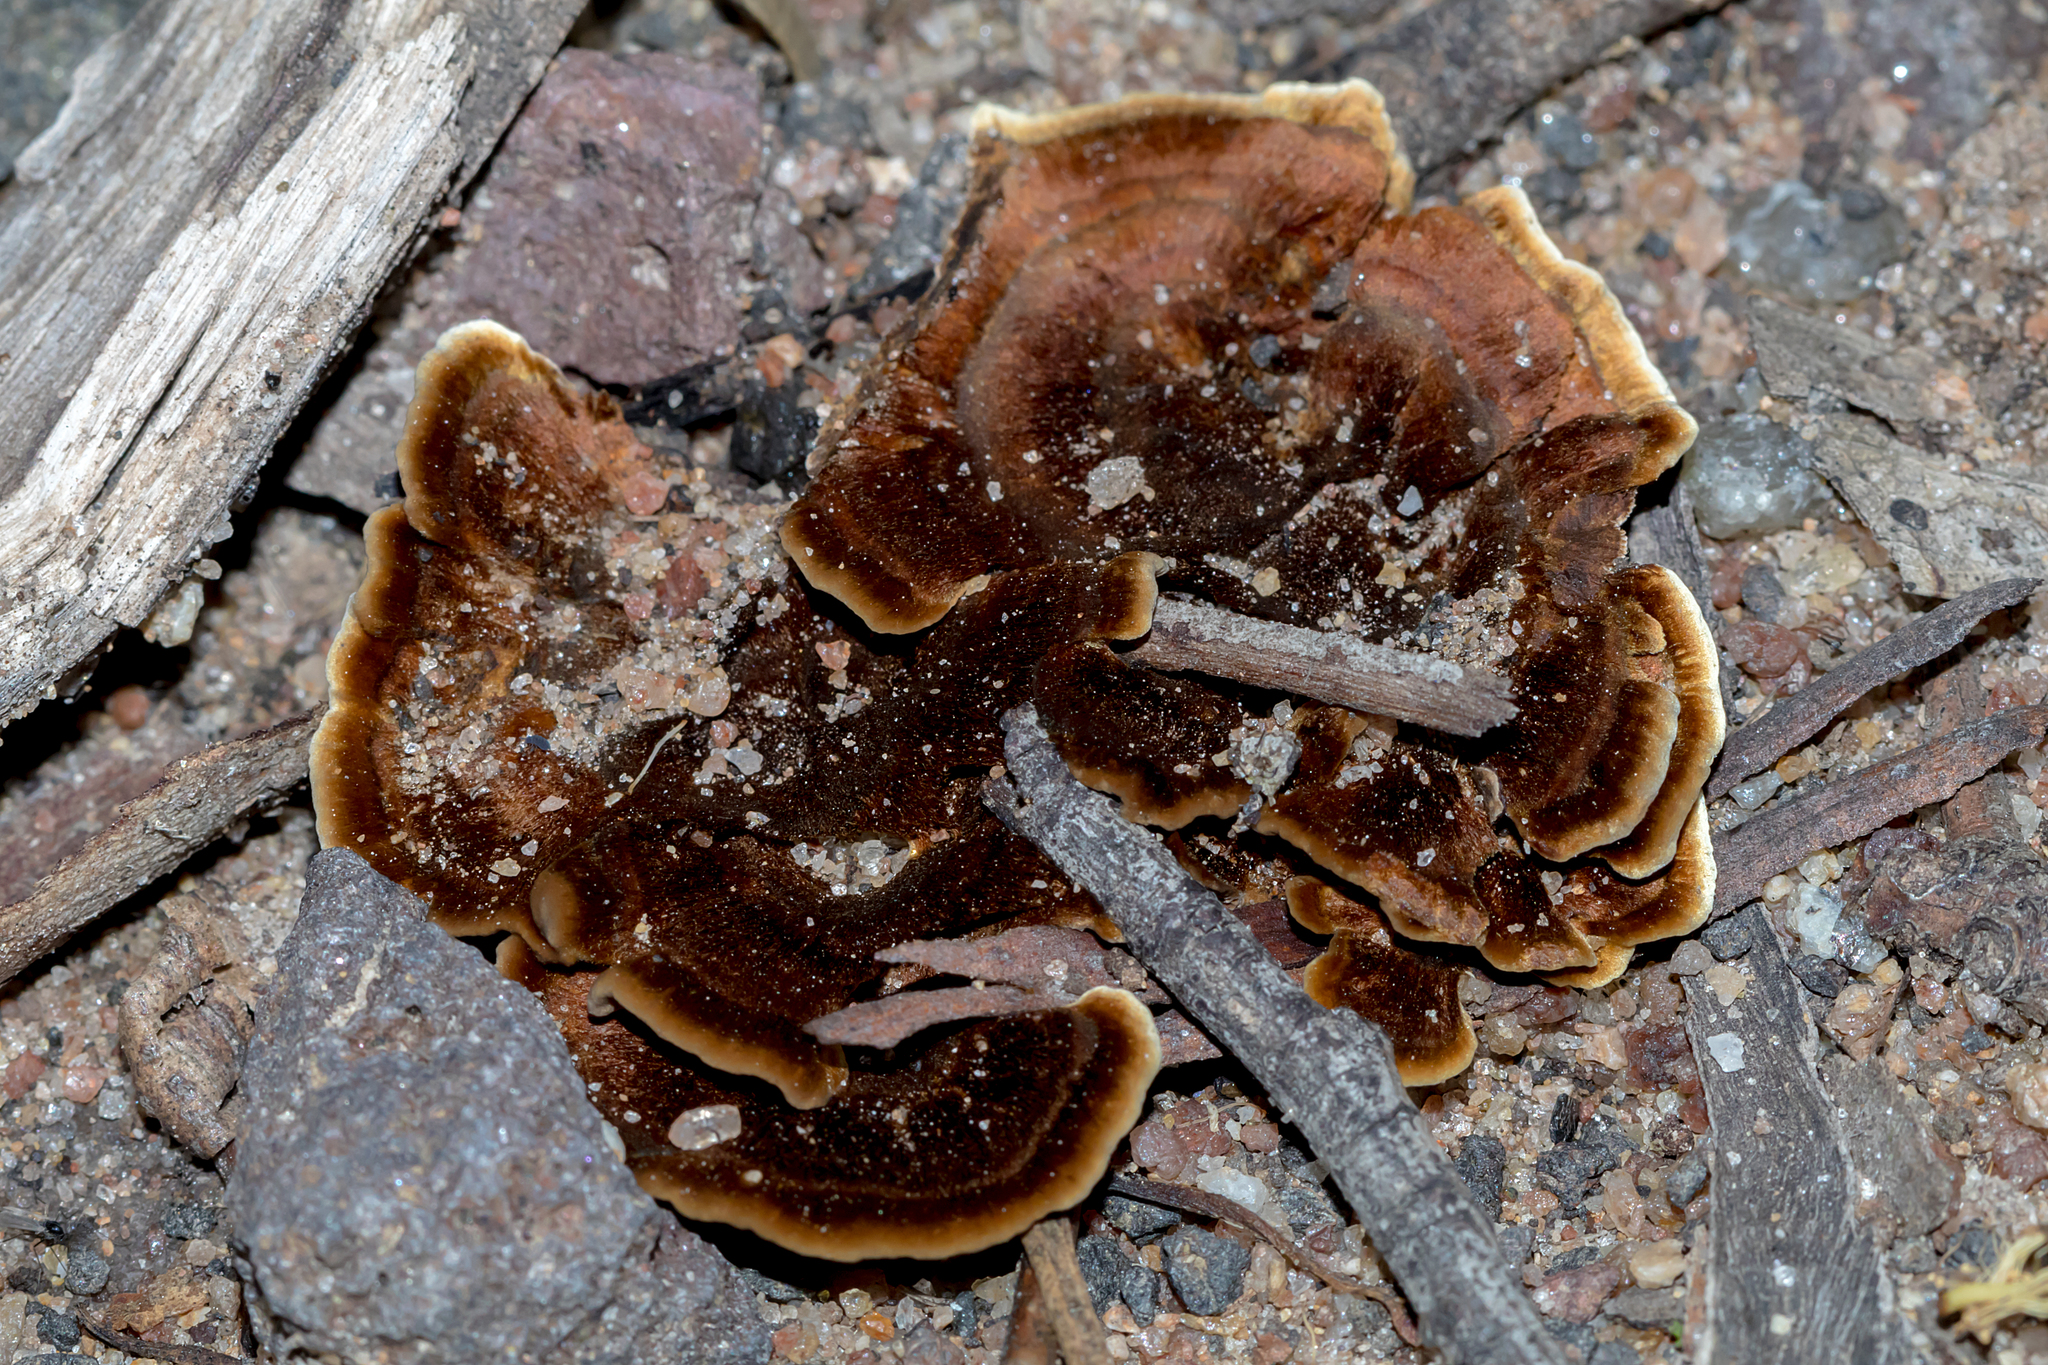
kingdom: Fungi
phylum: Basidiomycota
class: Agaricomycetes
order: Hymenochaetales
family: Hymenochaetaceae
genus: Coltricia
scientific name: Coltricia australica
